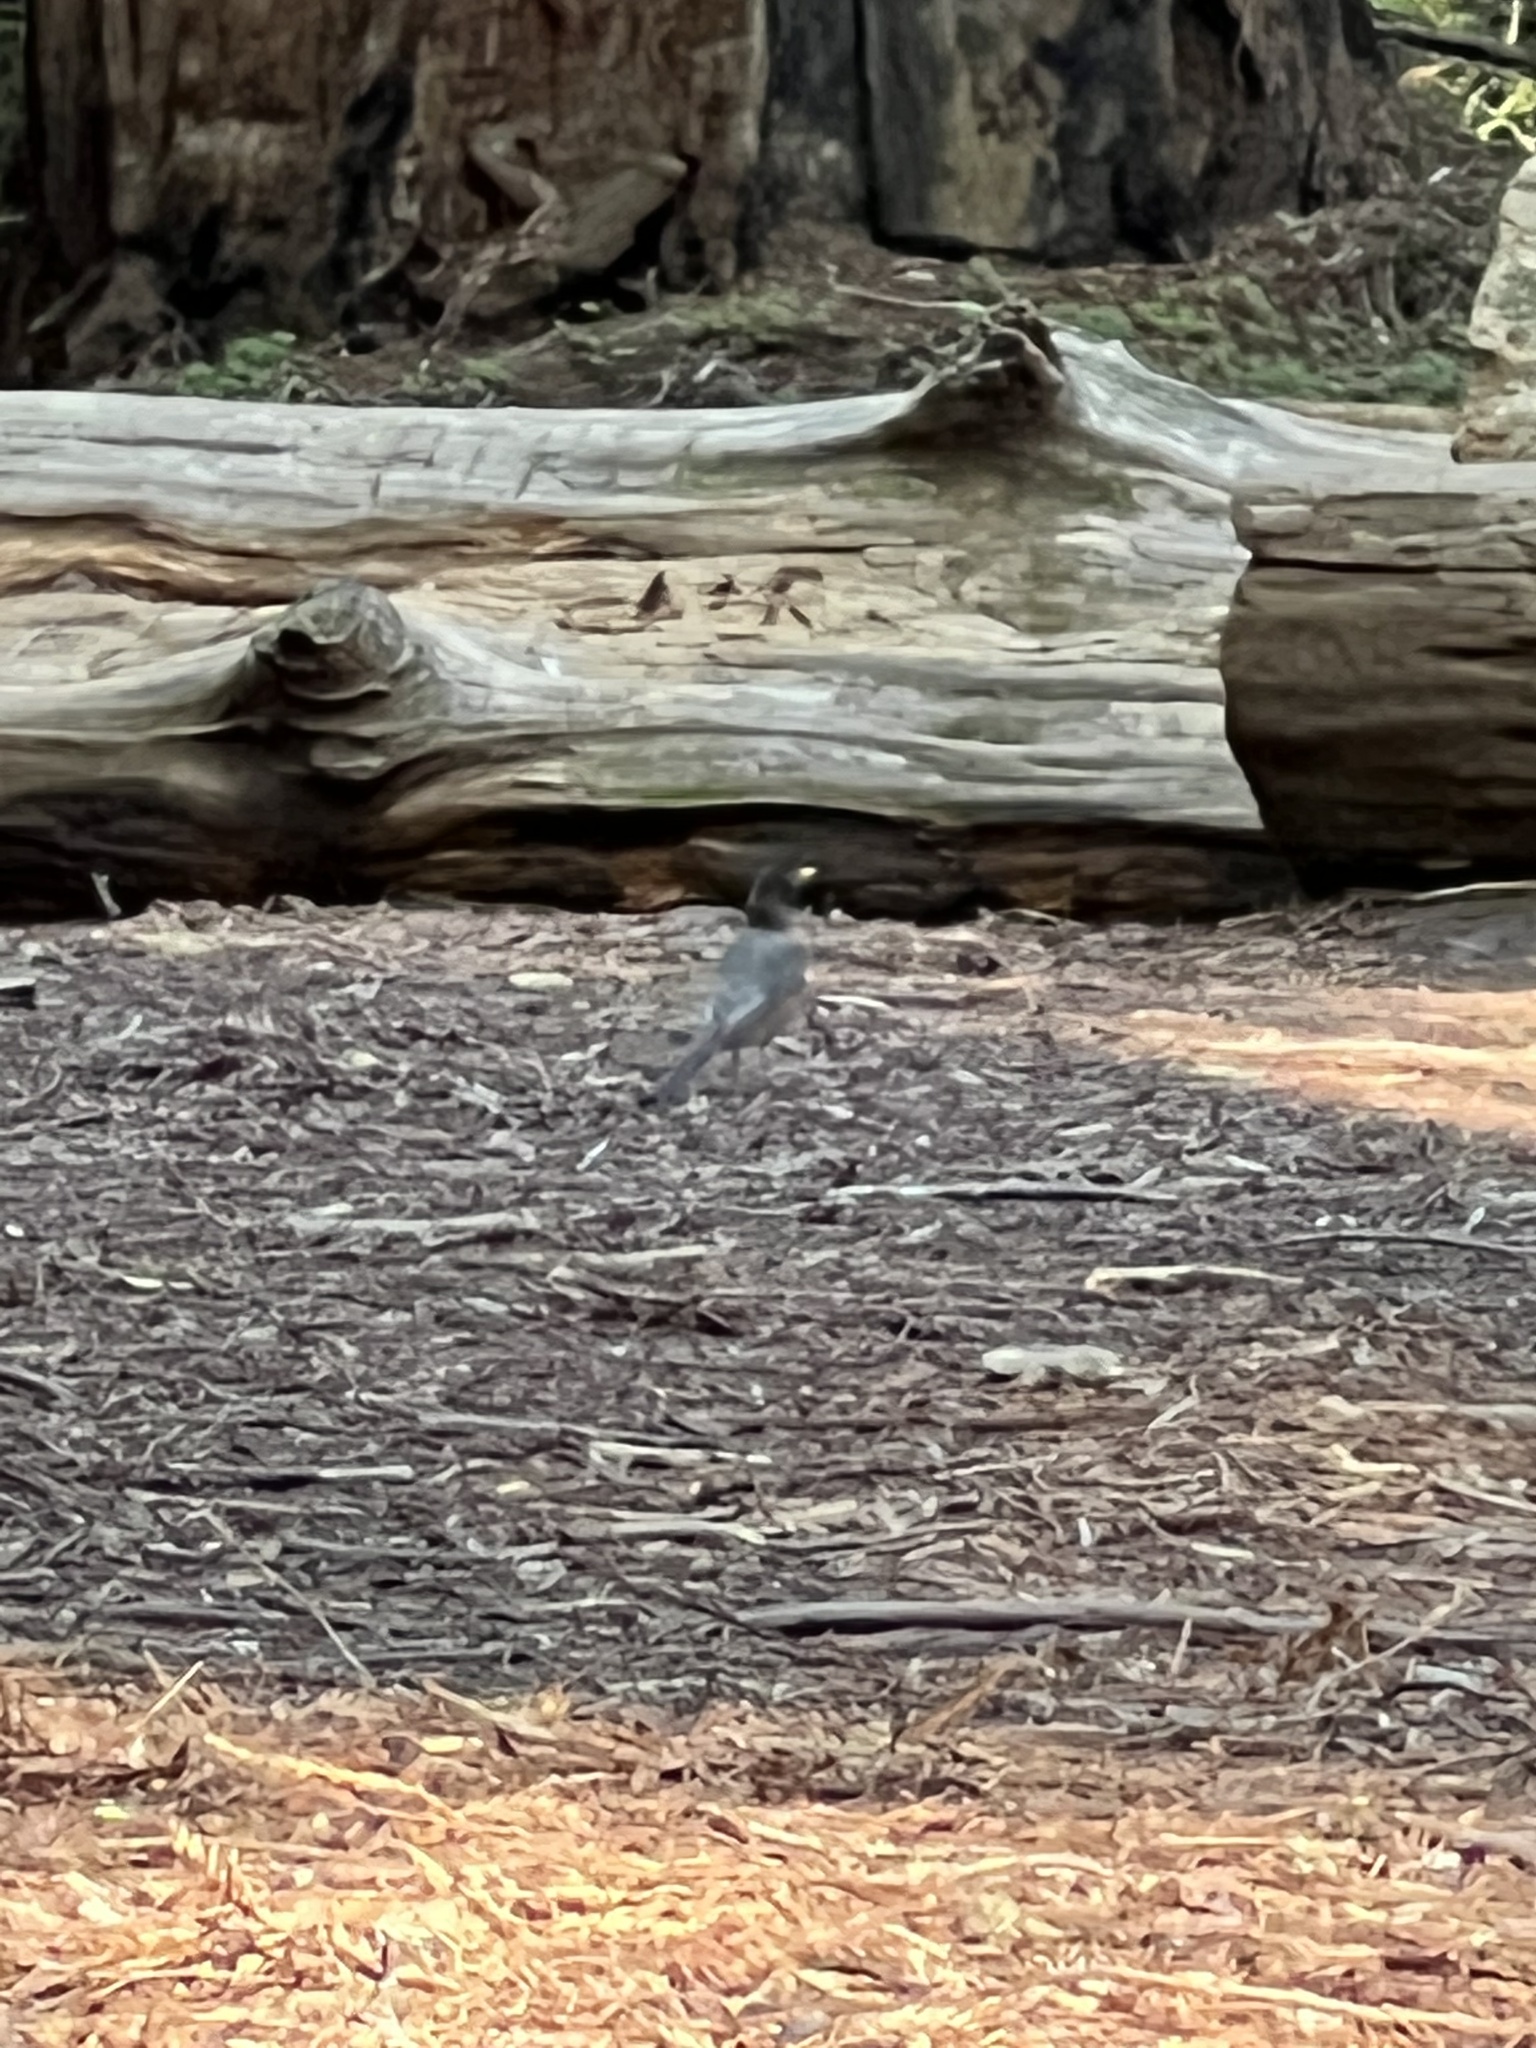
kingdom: Animalia
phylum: Chordata
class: Aves
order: Passeriformes
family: Turdidae
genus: Turdus
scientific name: Turdus migratorius
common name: American robin
